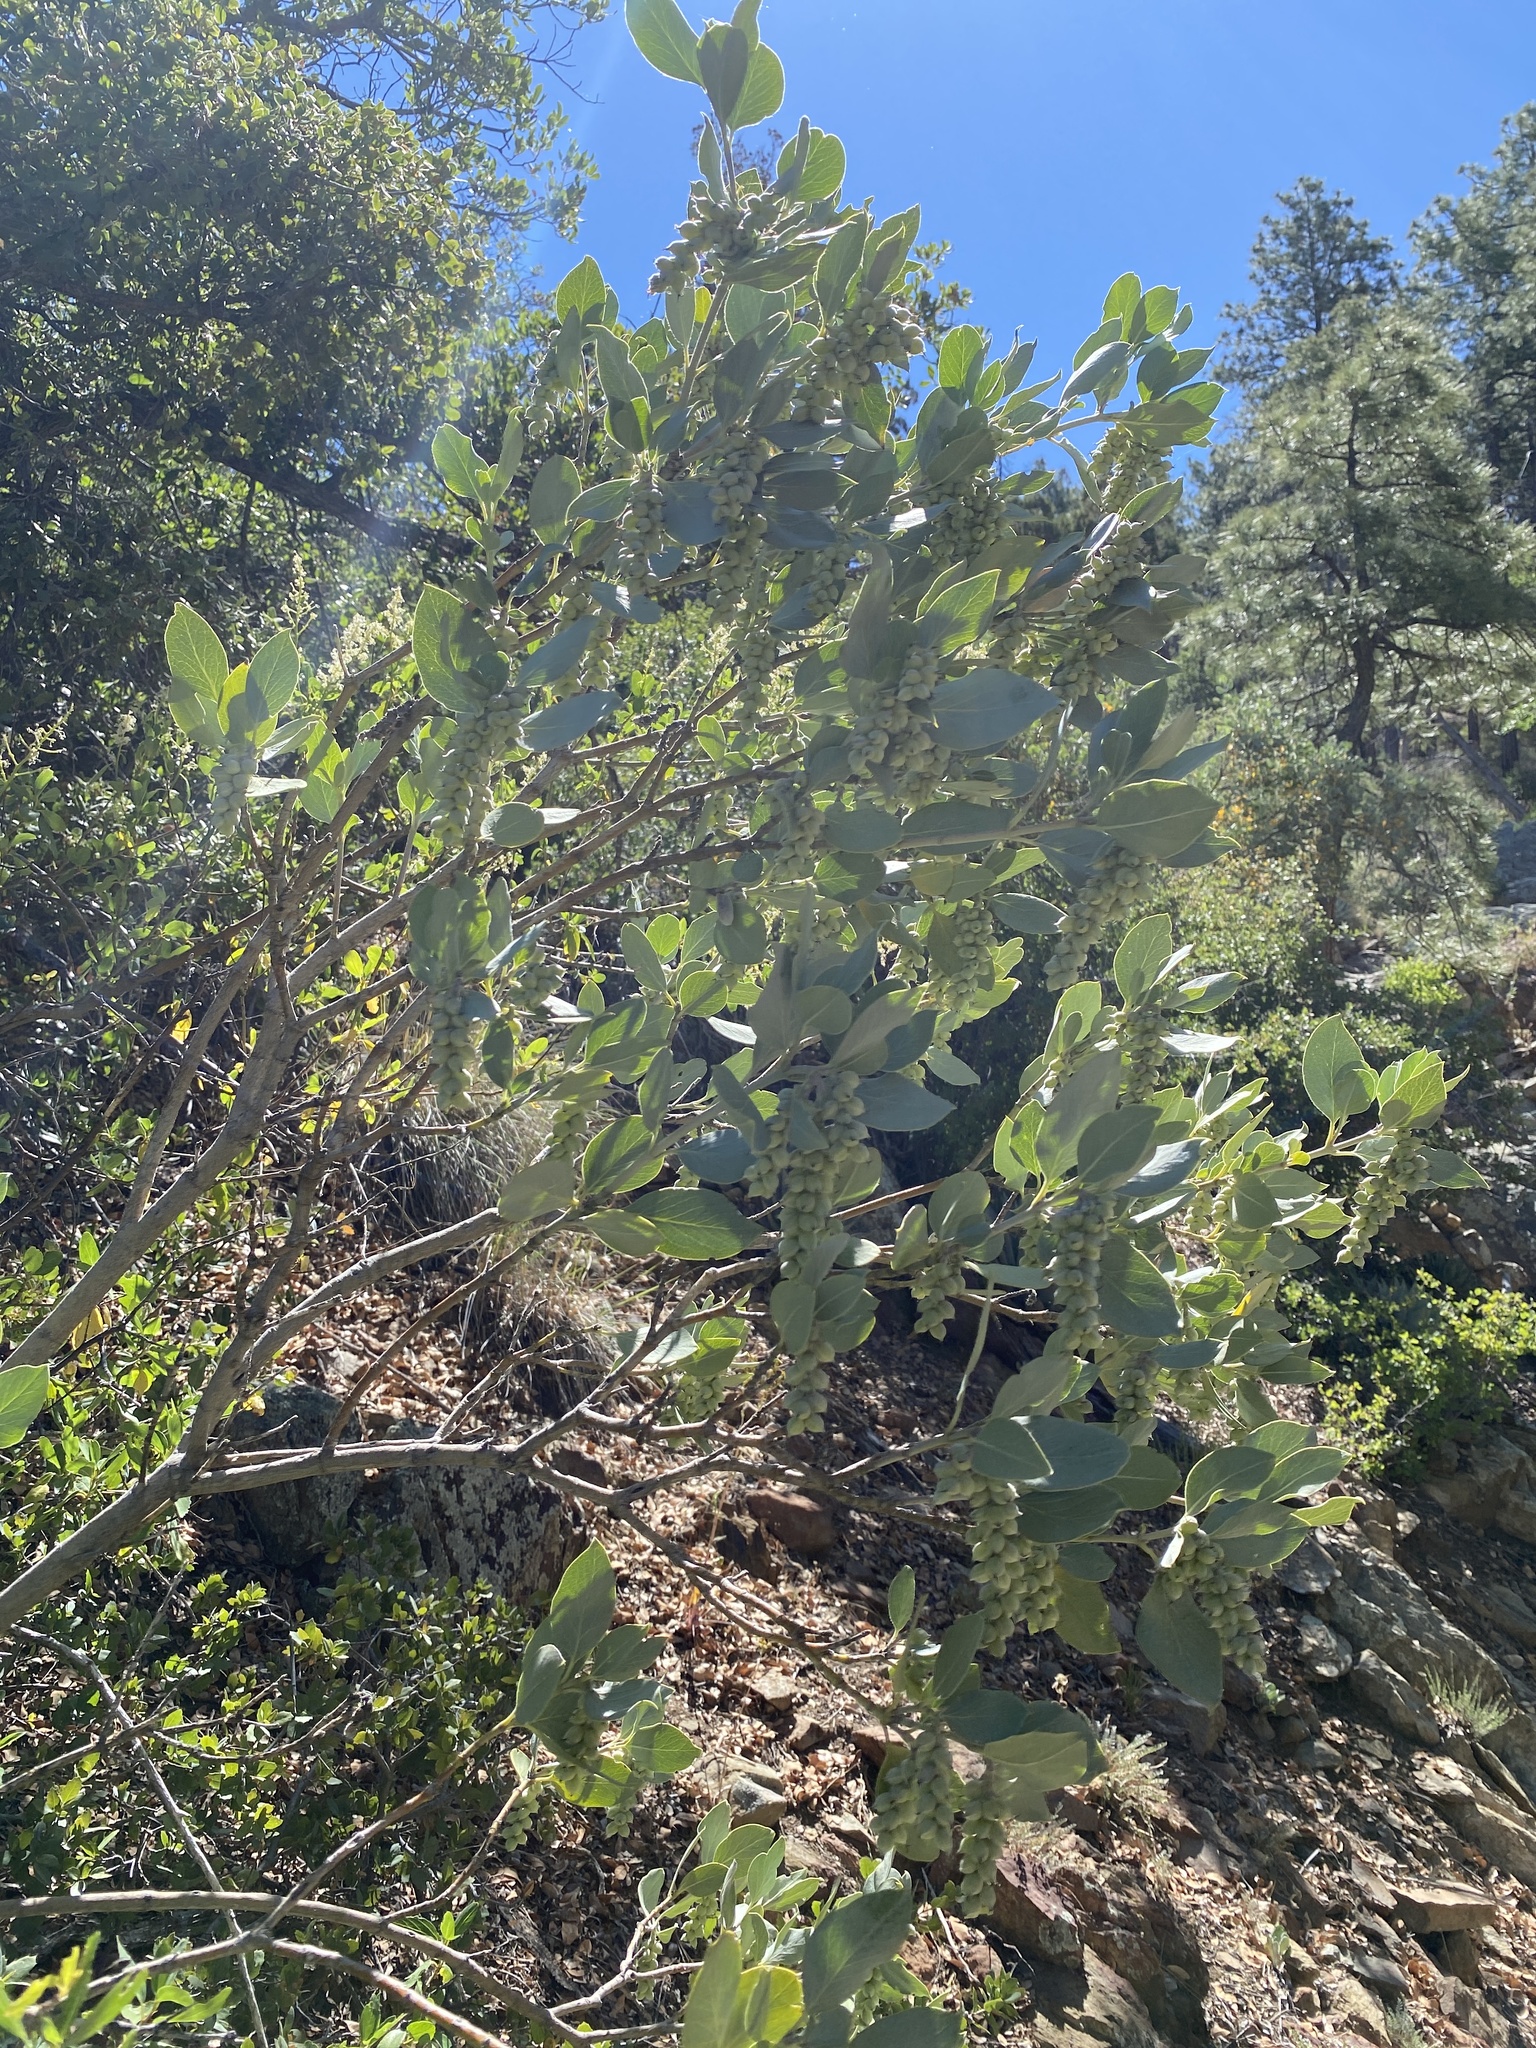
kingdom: Plantae
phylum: Tracheophyta
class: Magnoliopsida
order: Garryales
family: Garryaceae
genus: Garrya
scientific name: Garrya flavescens
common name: Ashy silk-tassel
